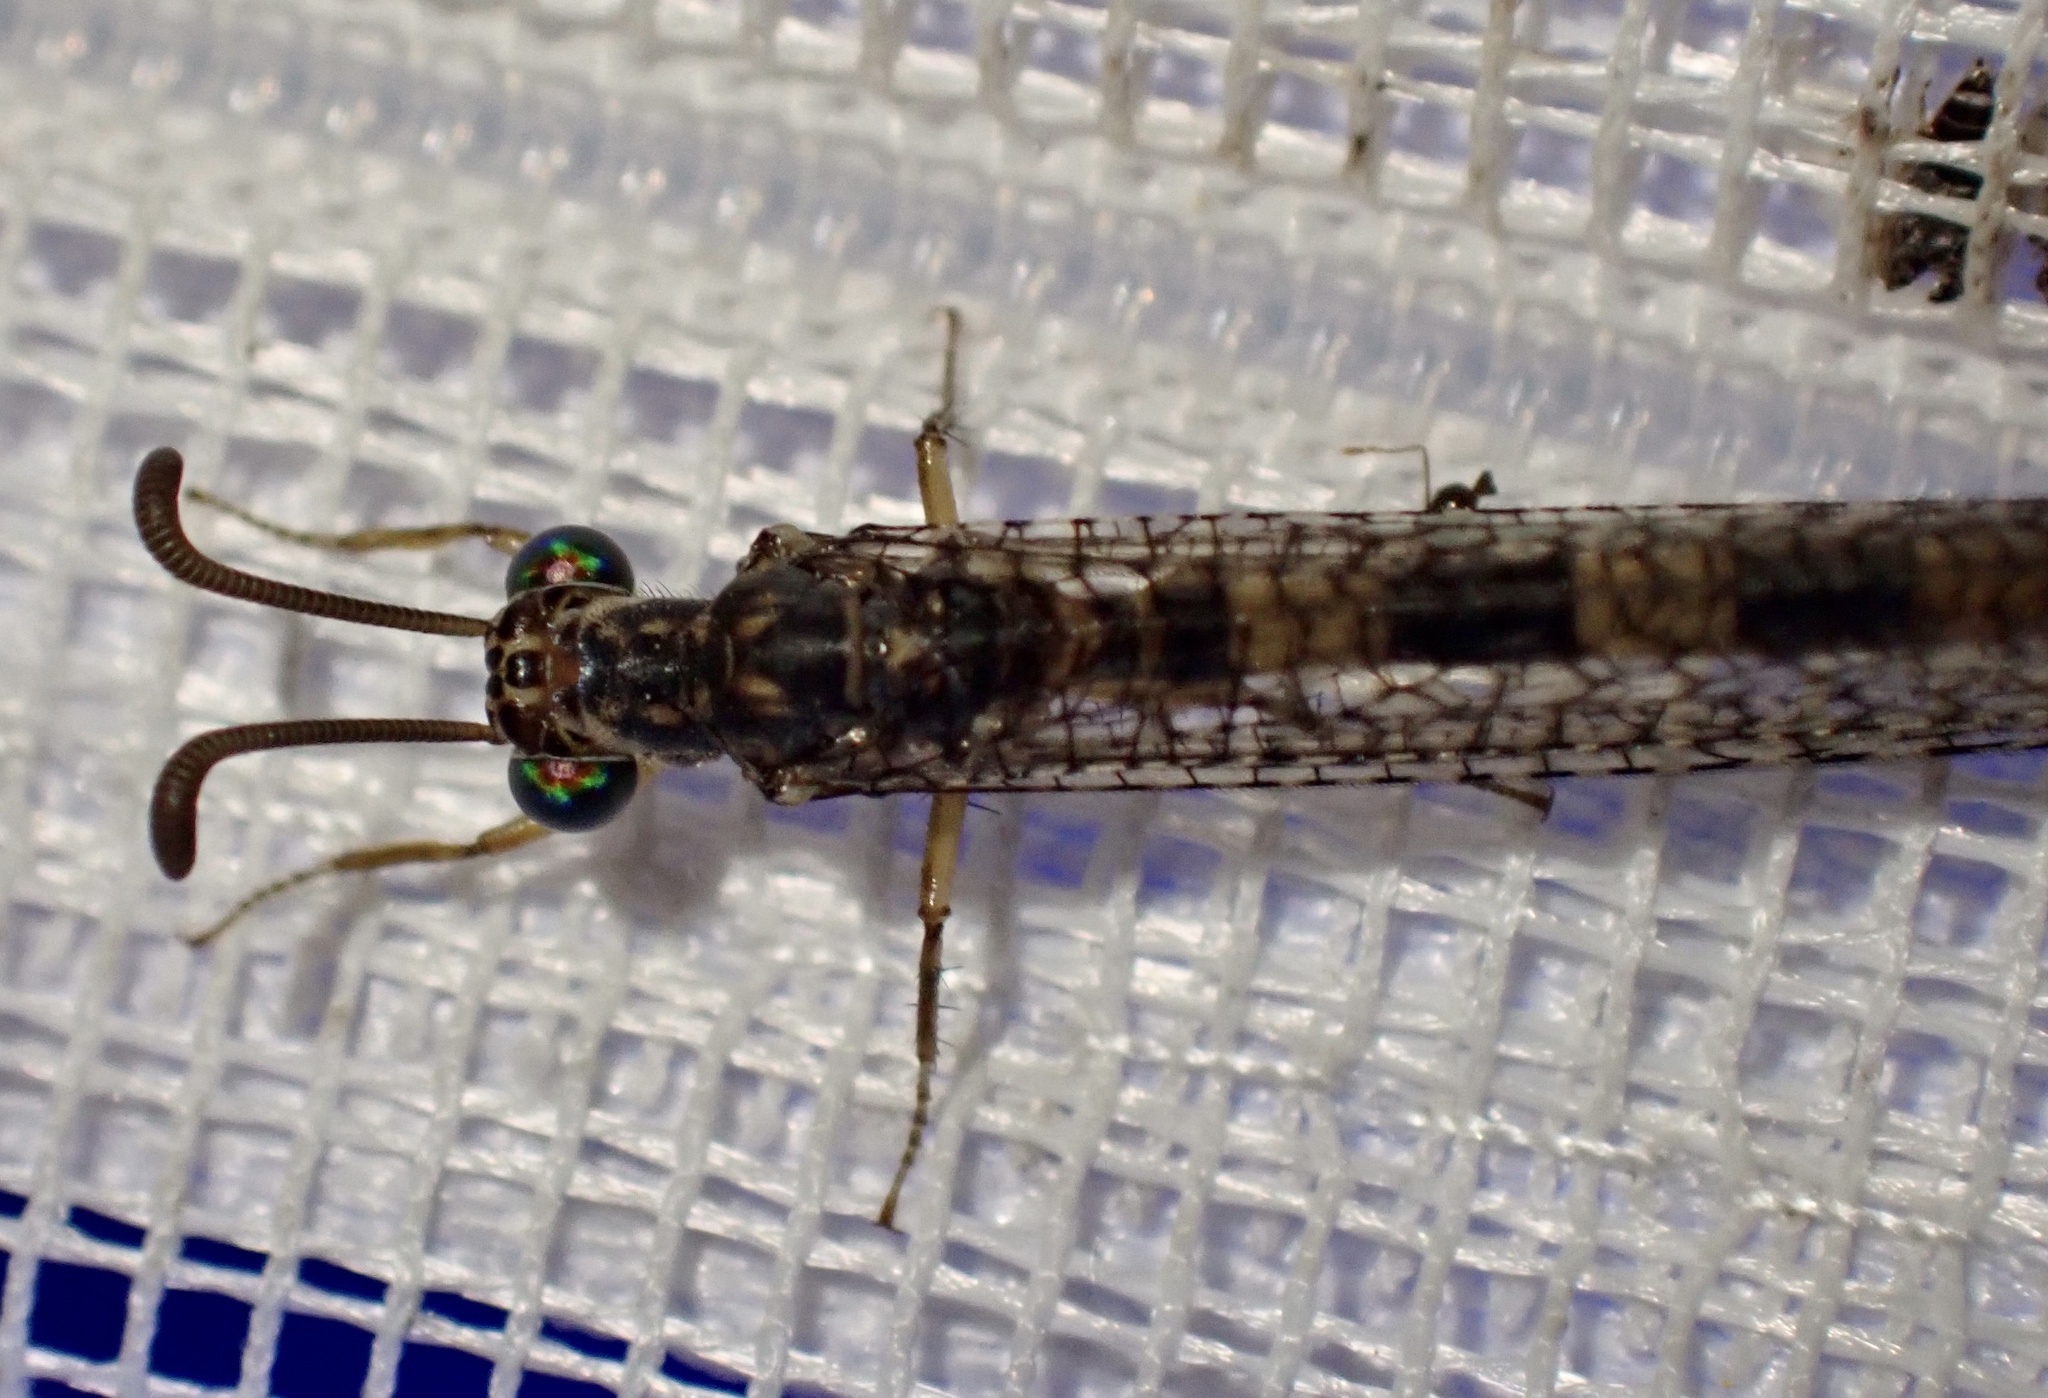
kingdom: Animalia
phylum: Arthropoda
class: Insecta
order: Neuroptera
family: Myrmeleontidae
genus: Myrmeleon
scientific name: Myrmeleon alternans
